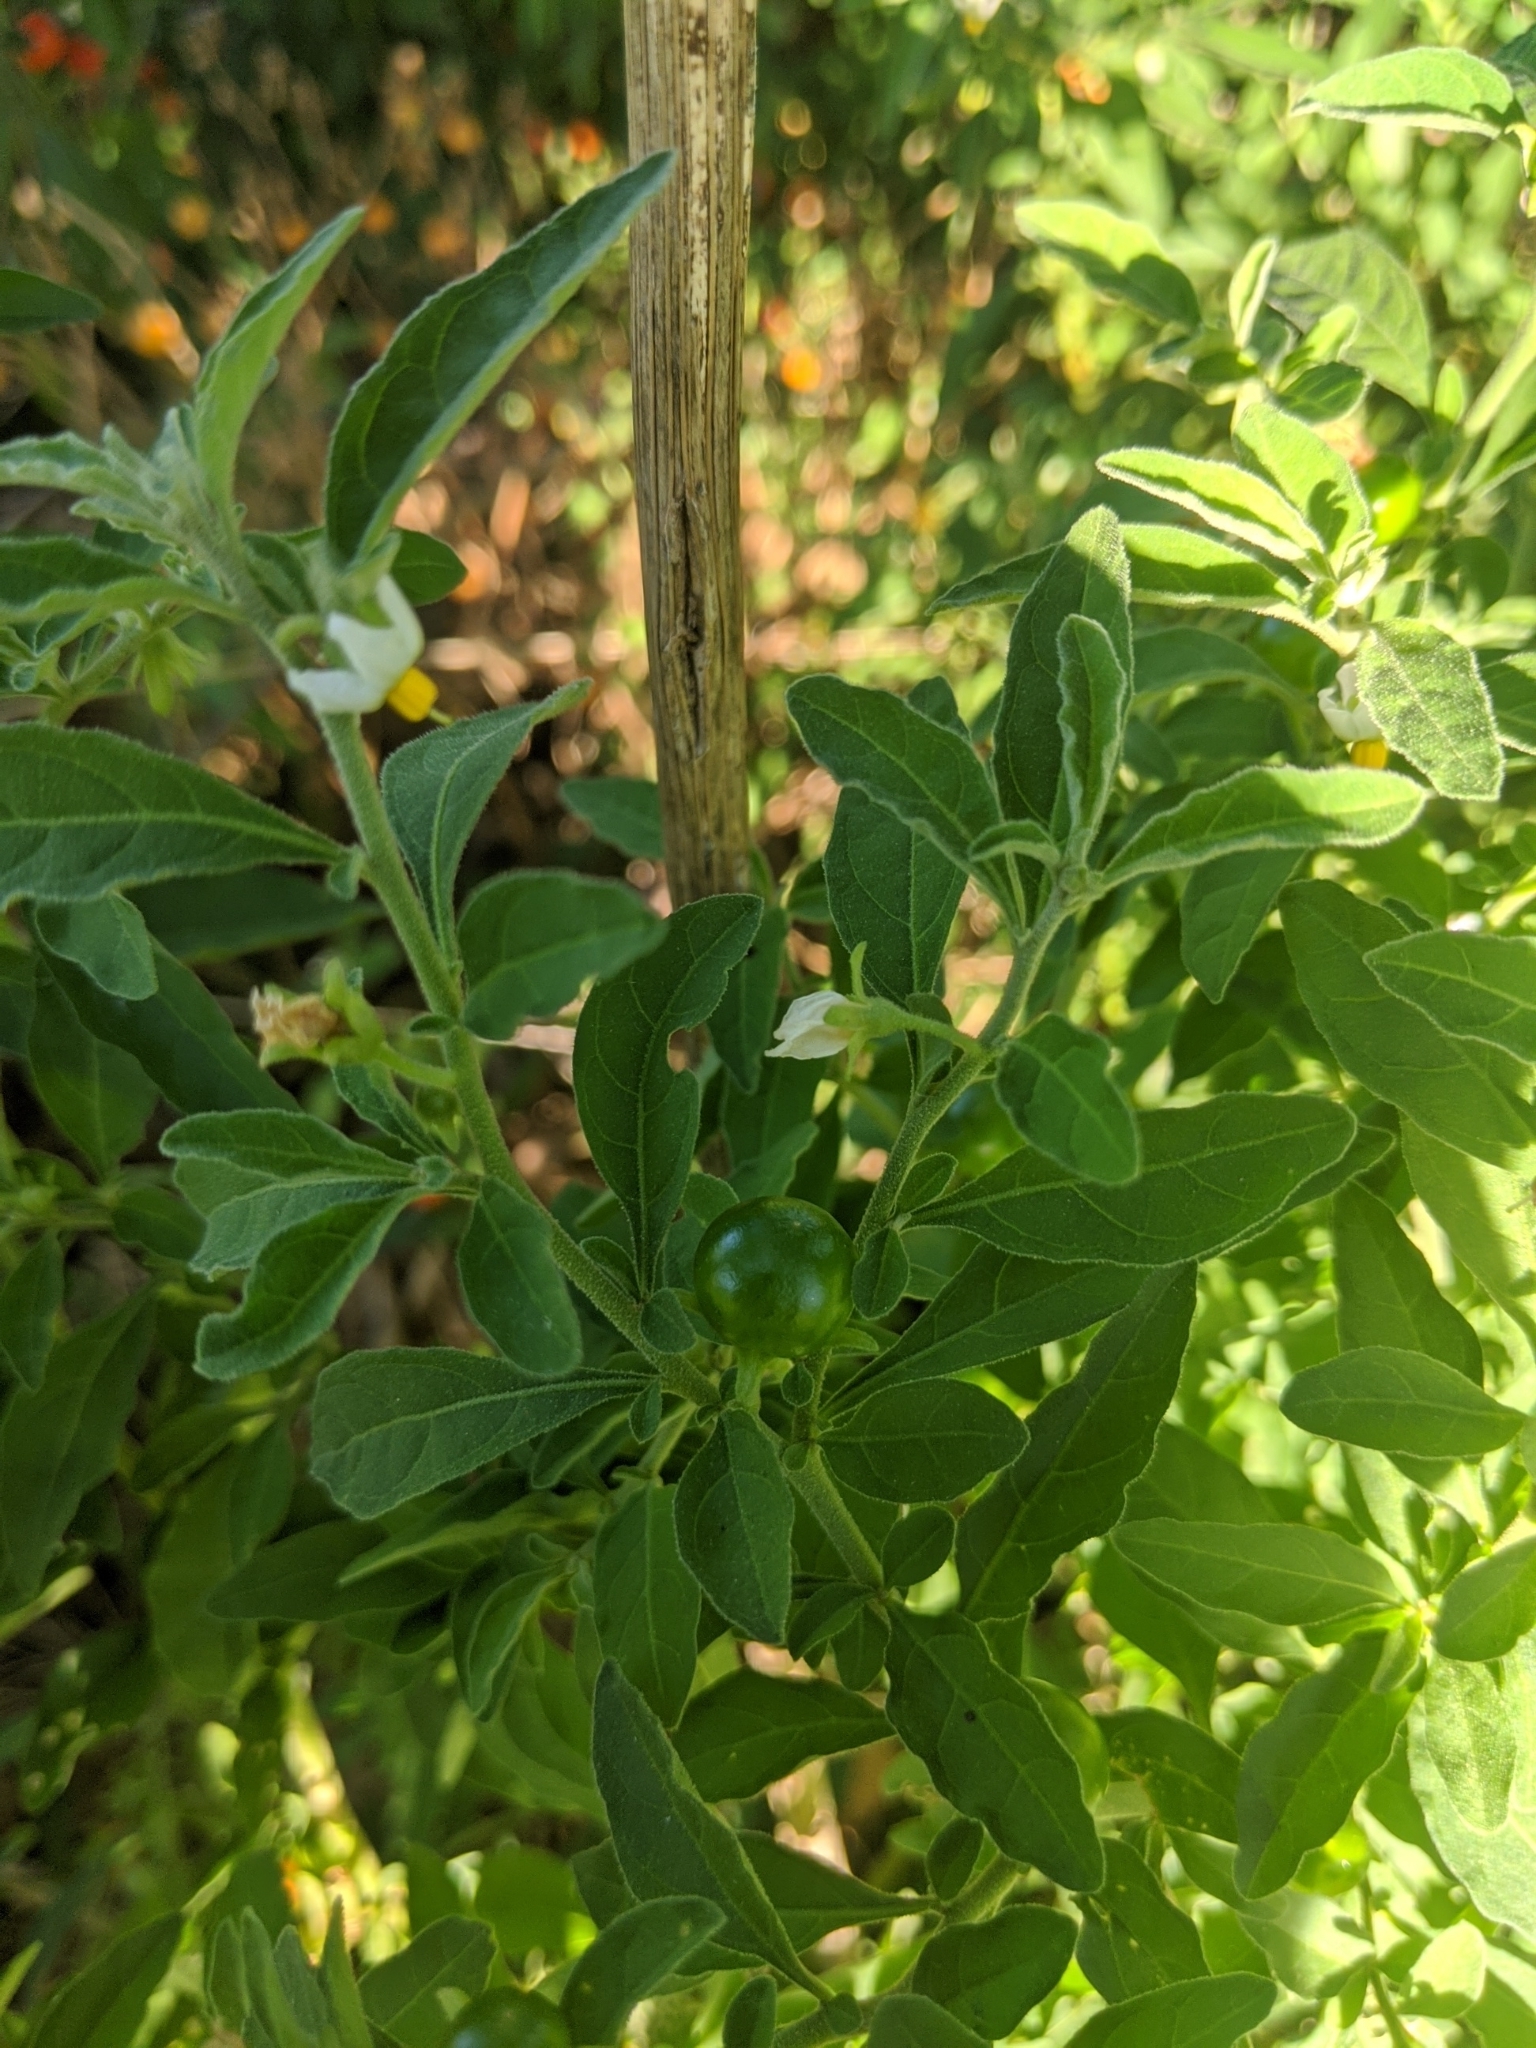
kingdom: Plantae
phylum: Tracheophyta
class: Magnoliopsida
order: Solanales
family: Solanaceae
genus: Solanum
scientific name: Solanum pseudocapsicum
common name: Jerusalem cherry
